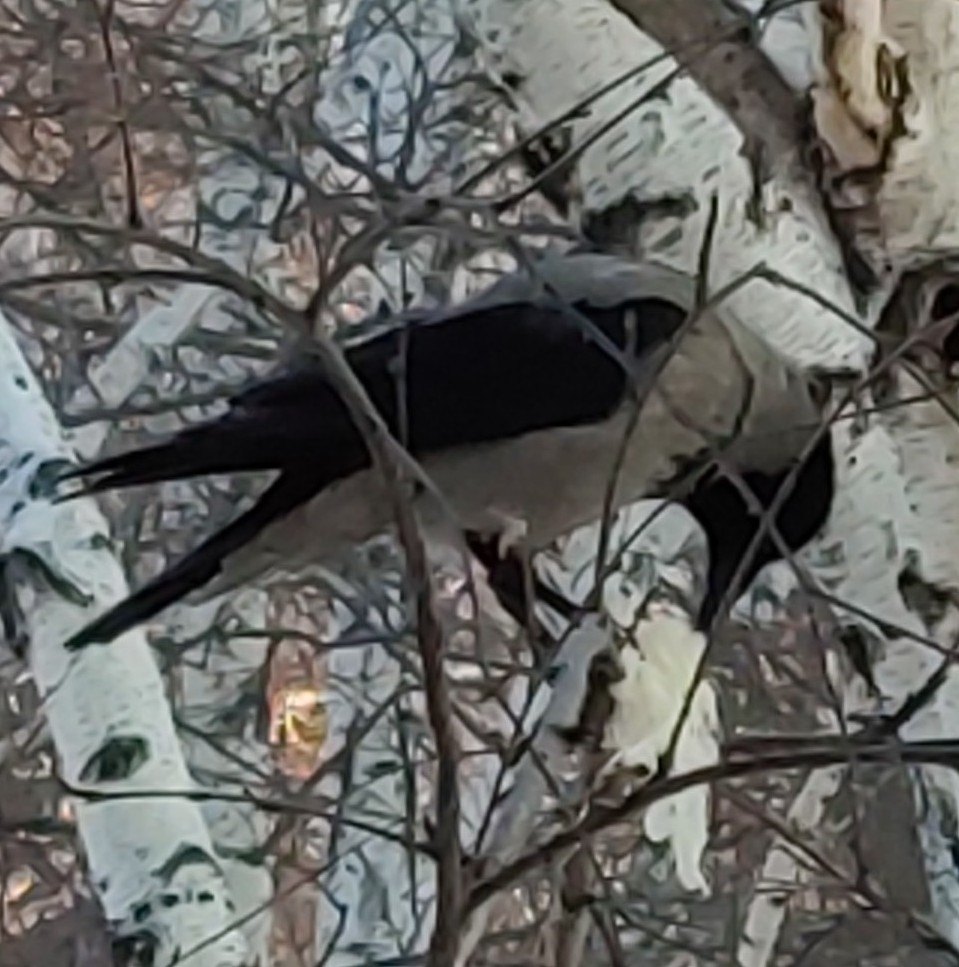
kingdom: Animalia
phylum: Chordata
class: Aves
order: Passeriformes
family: Corvidae
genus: Corvus
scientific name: Corvus cornix
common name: Hooded crow
